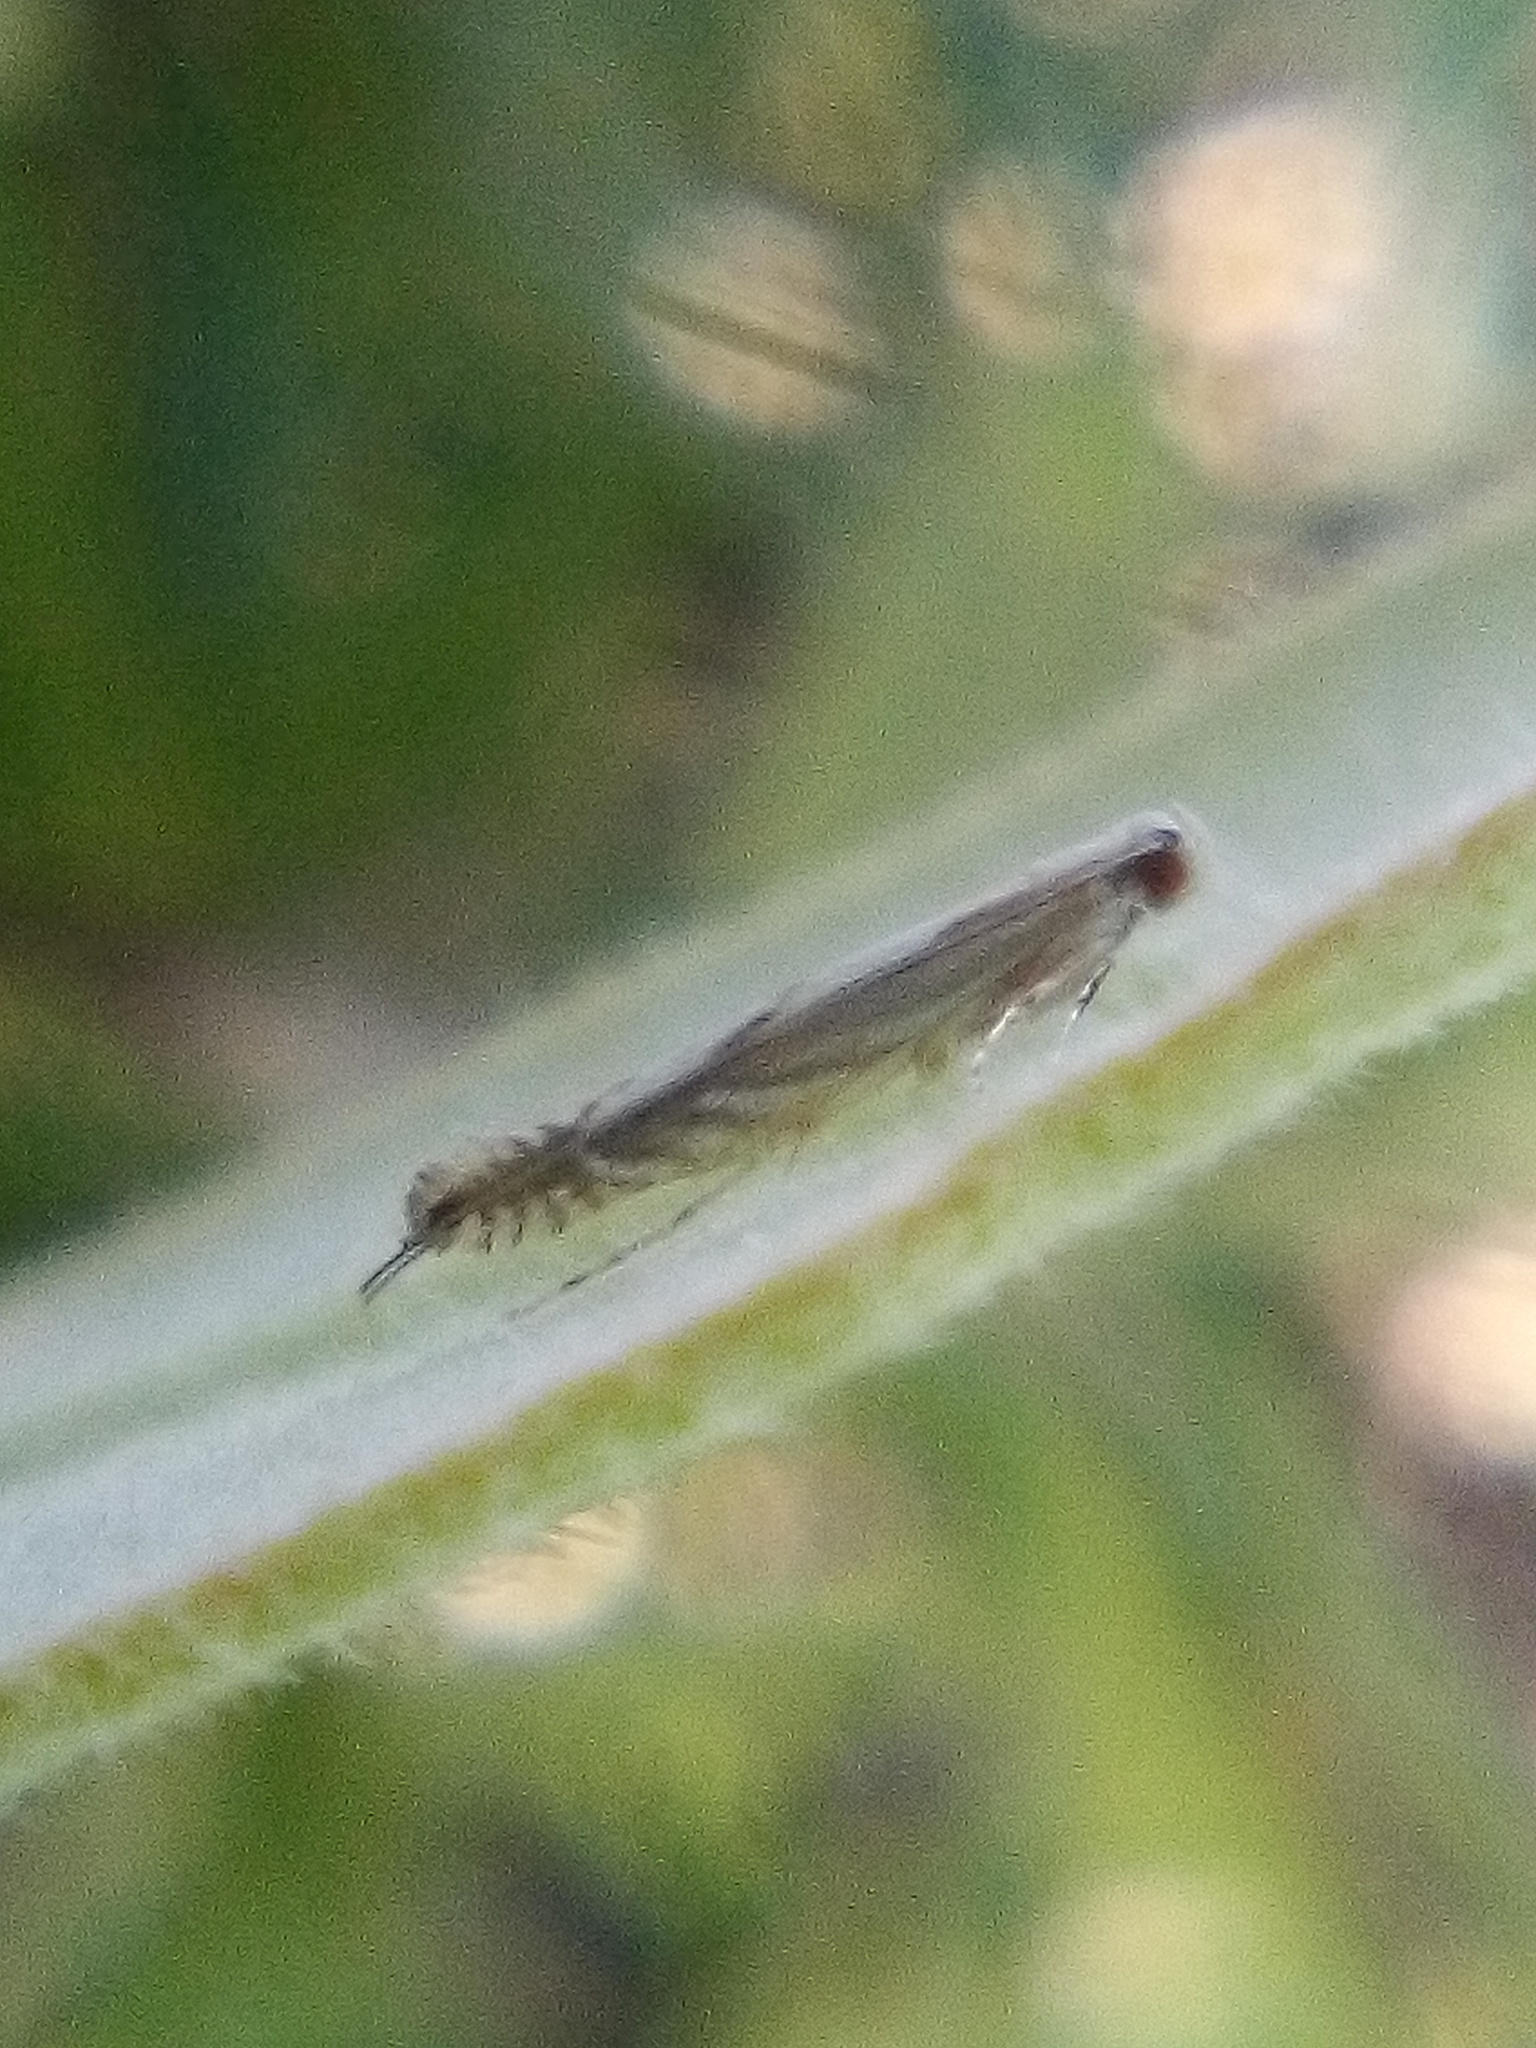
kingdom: Animalia
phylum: Arthropoda
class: Insecta
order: Lepidoptera
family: Gracillariidae
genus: Acrocercops
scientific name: Acrocercops leucotoma
